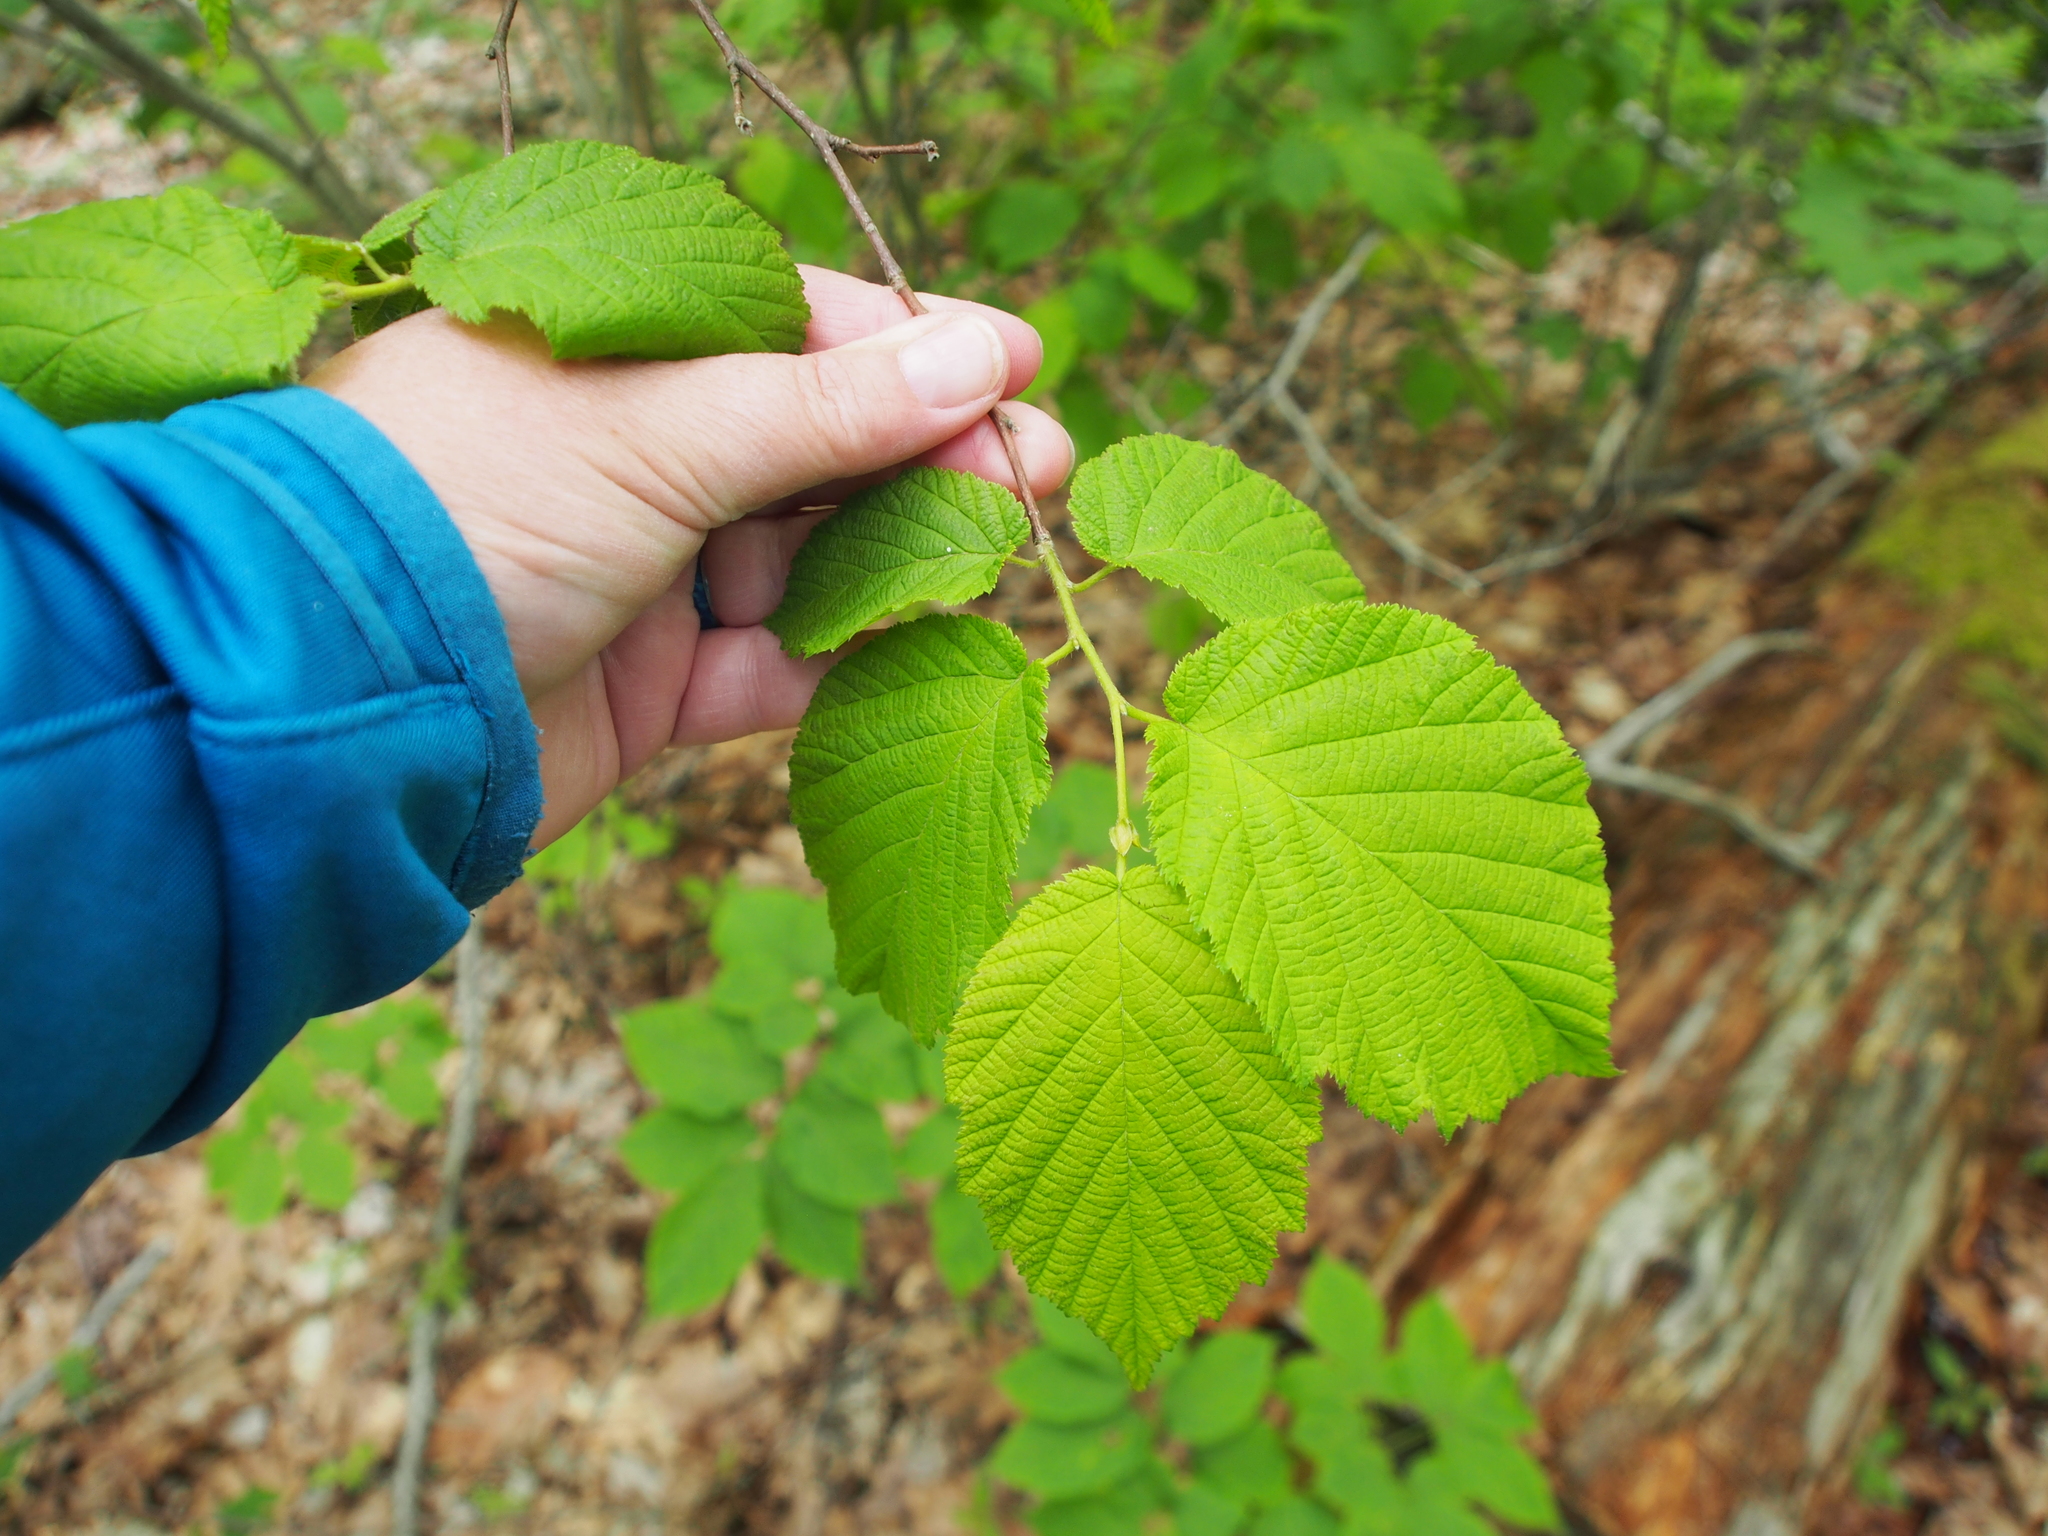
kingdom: Plantae
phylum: Tracheophyta
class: Magnoliopsida
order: Fagales
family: Betulaceae
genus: Corylus
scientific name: Corylus cornuta
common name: Beaked hazel
